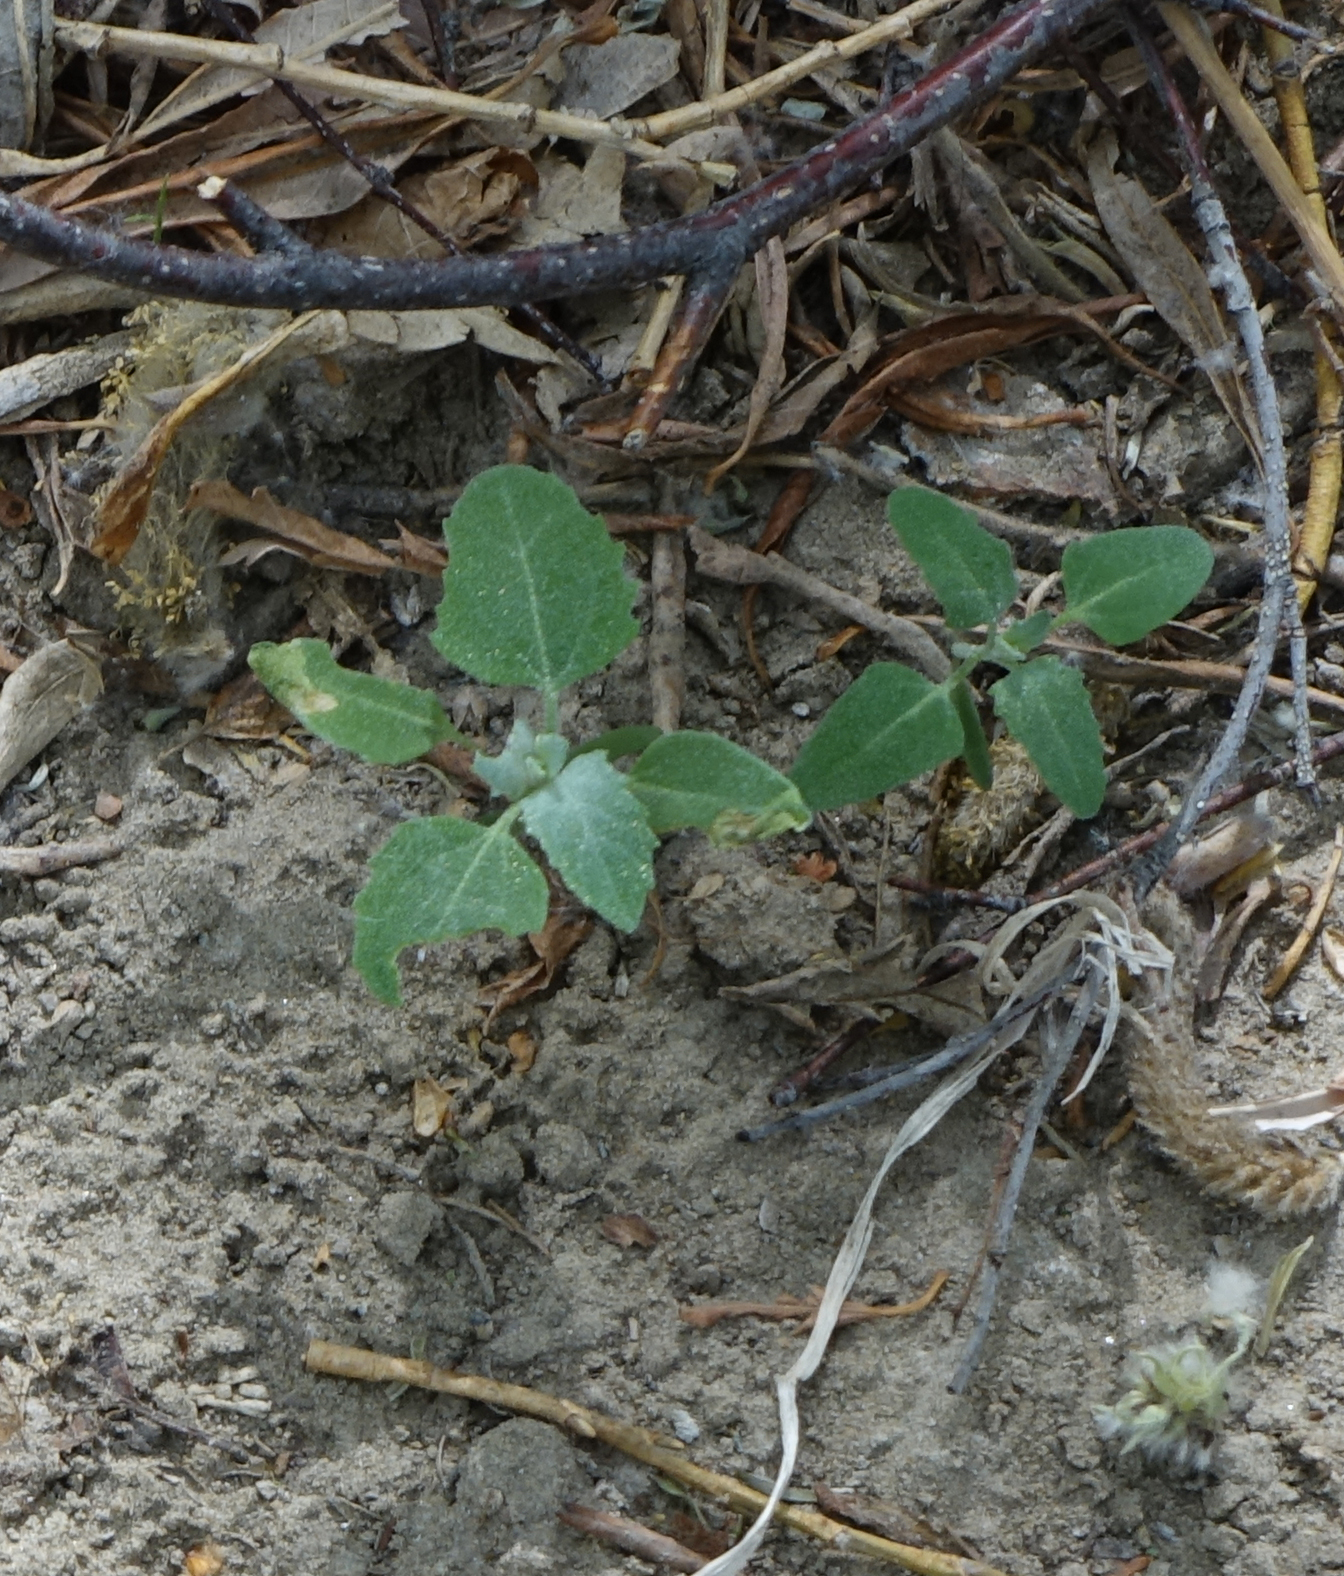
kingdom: Plantae
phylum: Tracheophyta
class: Magnoliopsida
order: Caryophyllales
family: Amaranthaceae
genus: Chenopodium
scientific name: Chenopodium album
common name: Fat-hen
